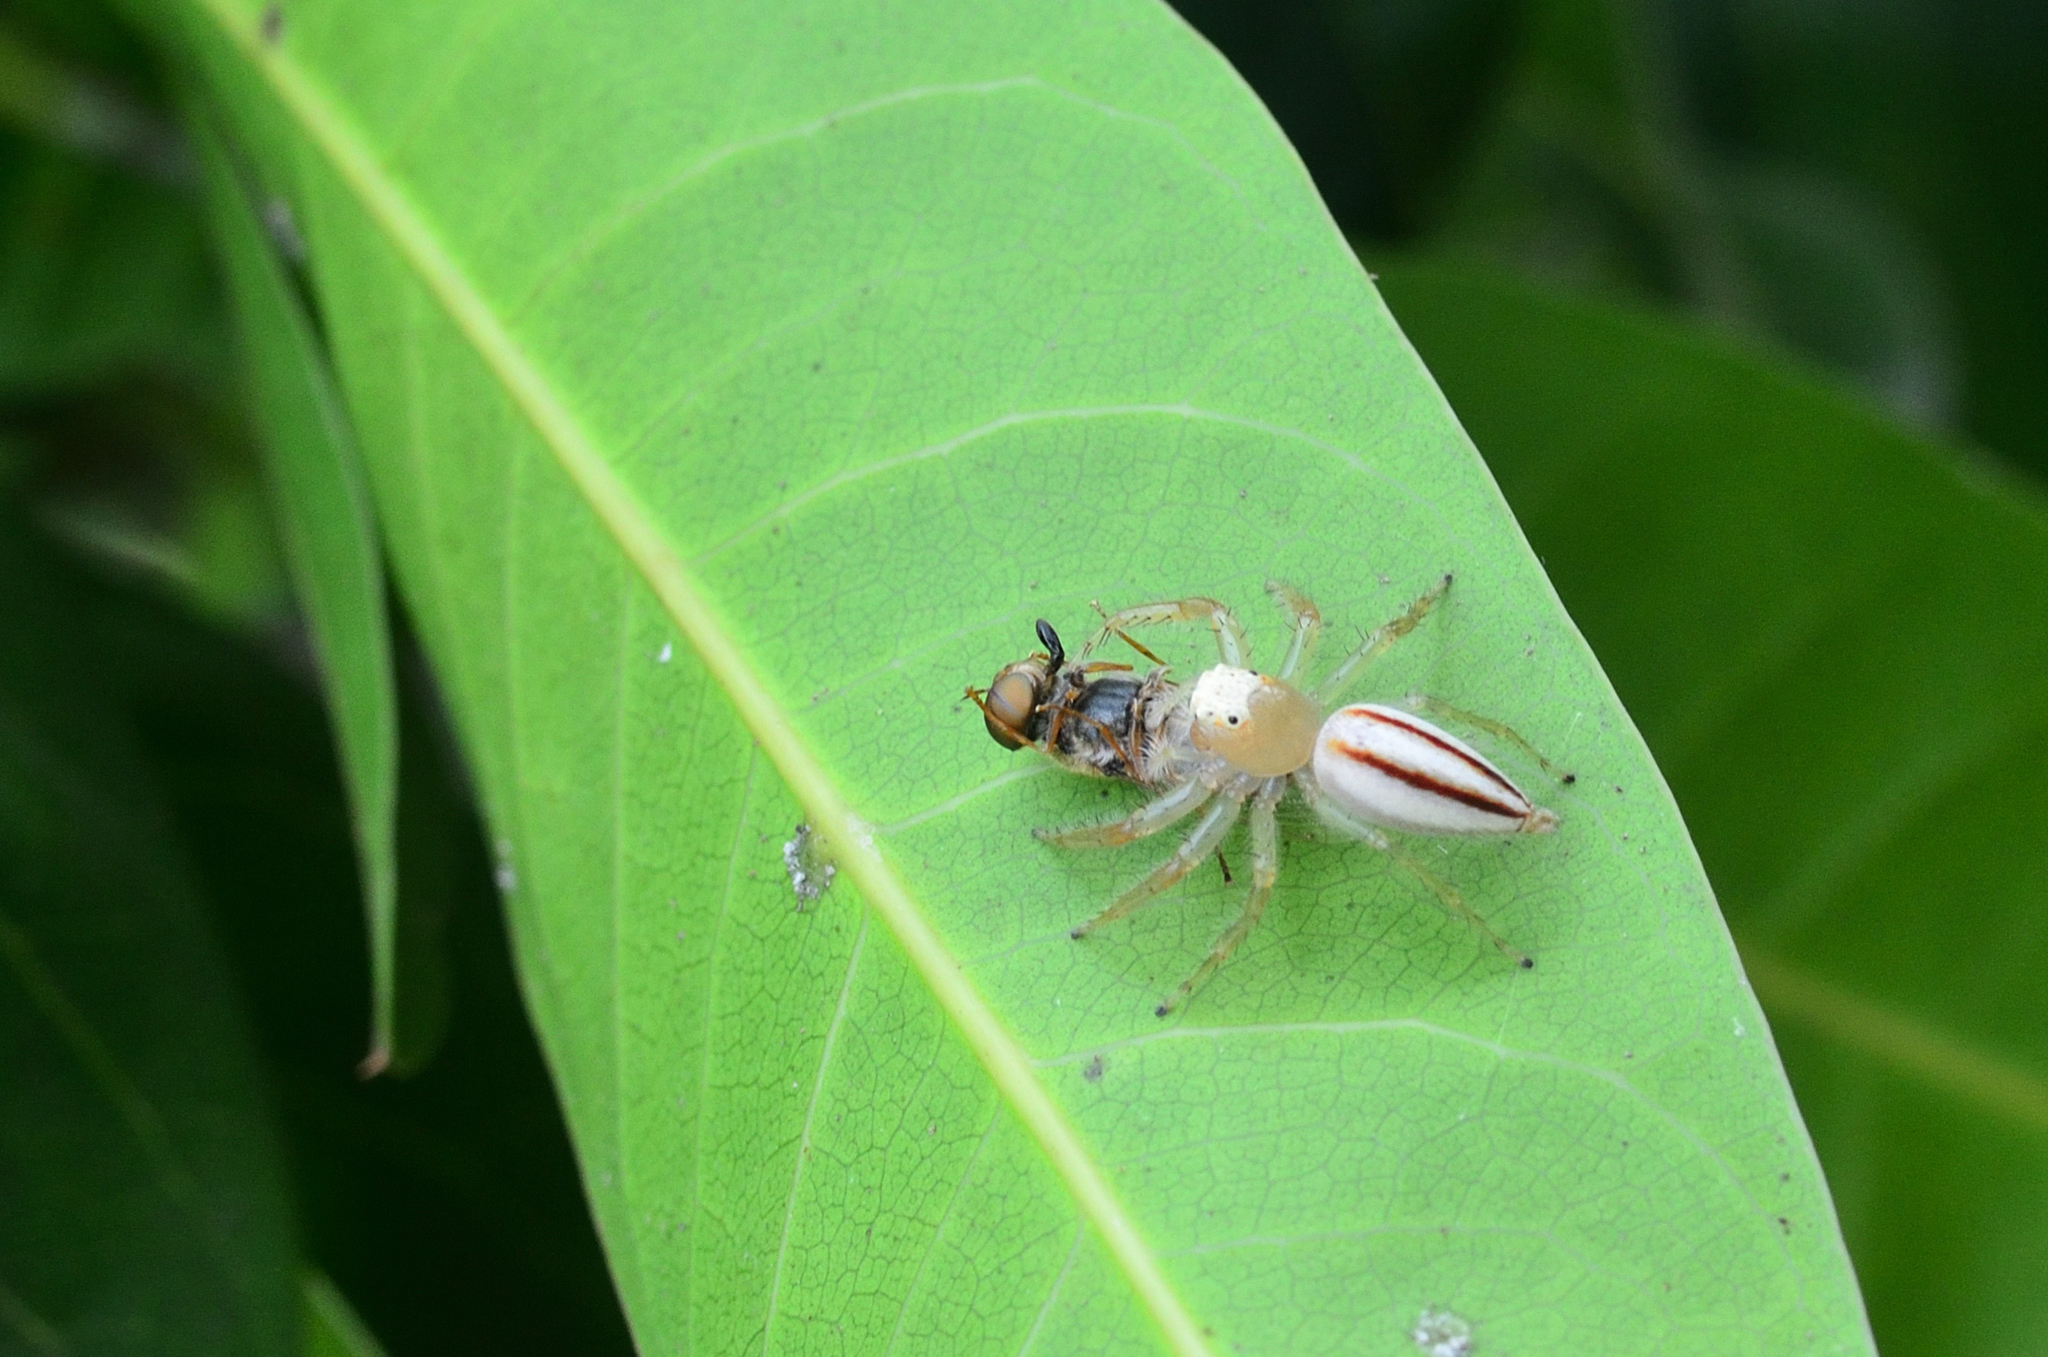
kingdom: Animalia
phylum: Arthropoda
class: Arachnida
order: Araneae
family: Salticidae
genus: Telamonia
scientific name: Telamonia dimidiata
